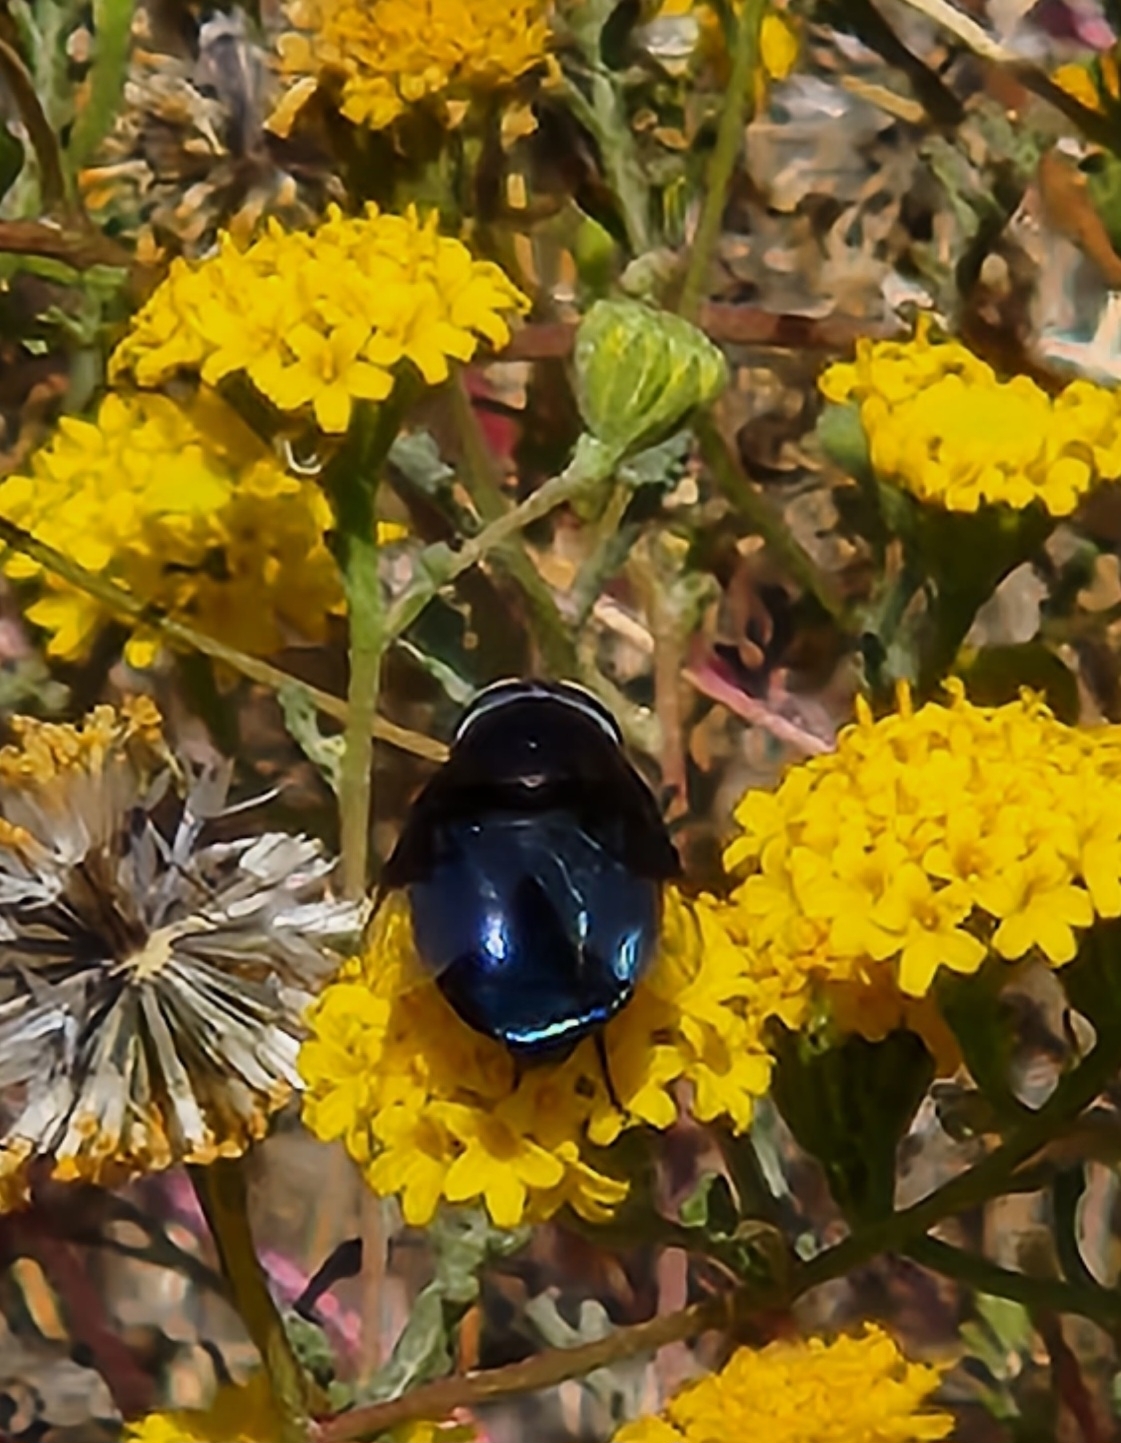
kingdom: Animalia
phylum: Arthropoda
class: Insecta
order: Diptera
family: Syrphidae
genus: Copestylum
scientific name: Copestylum
